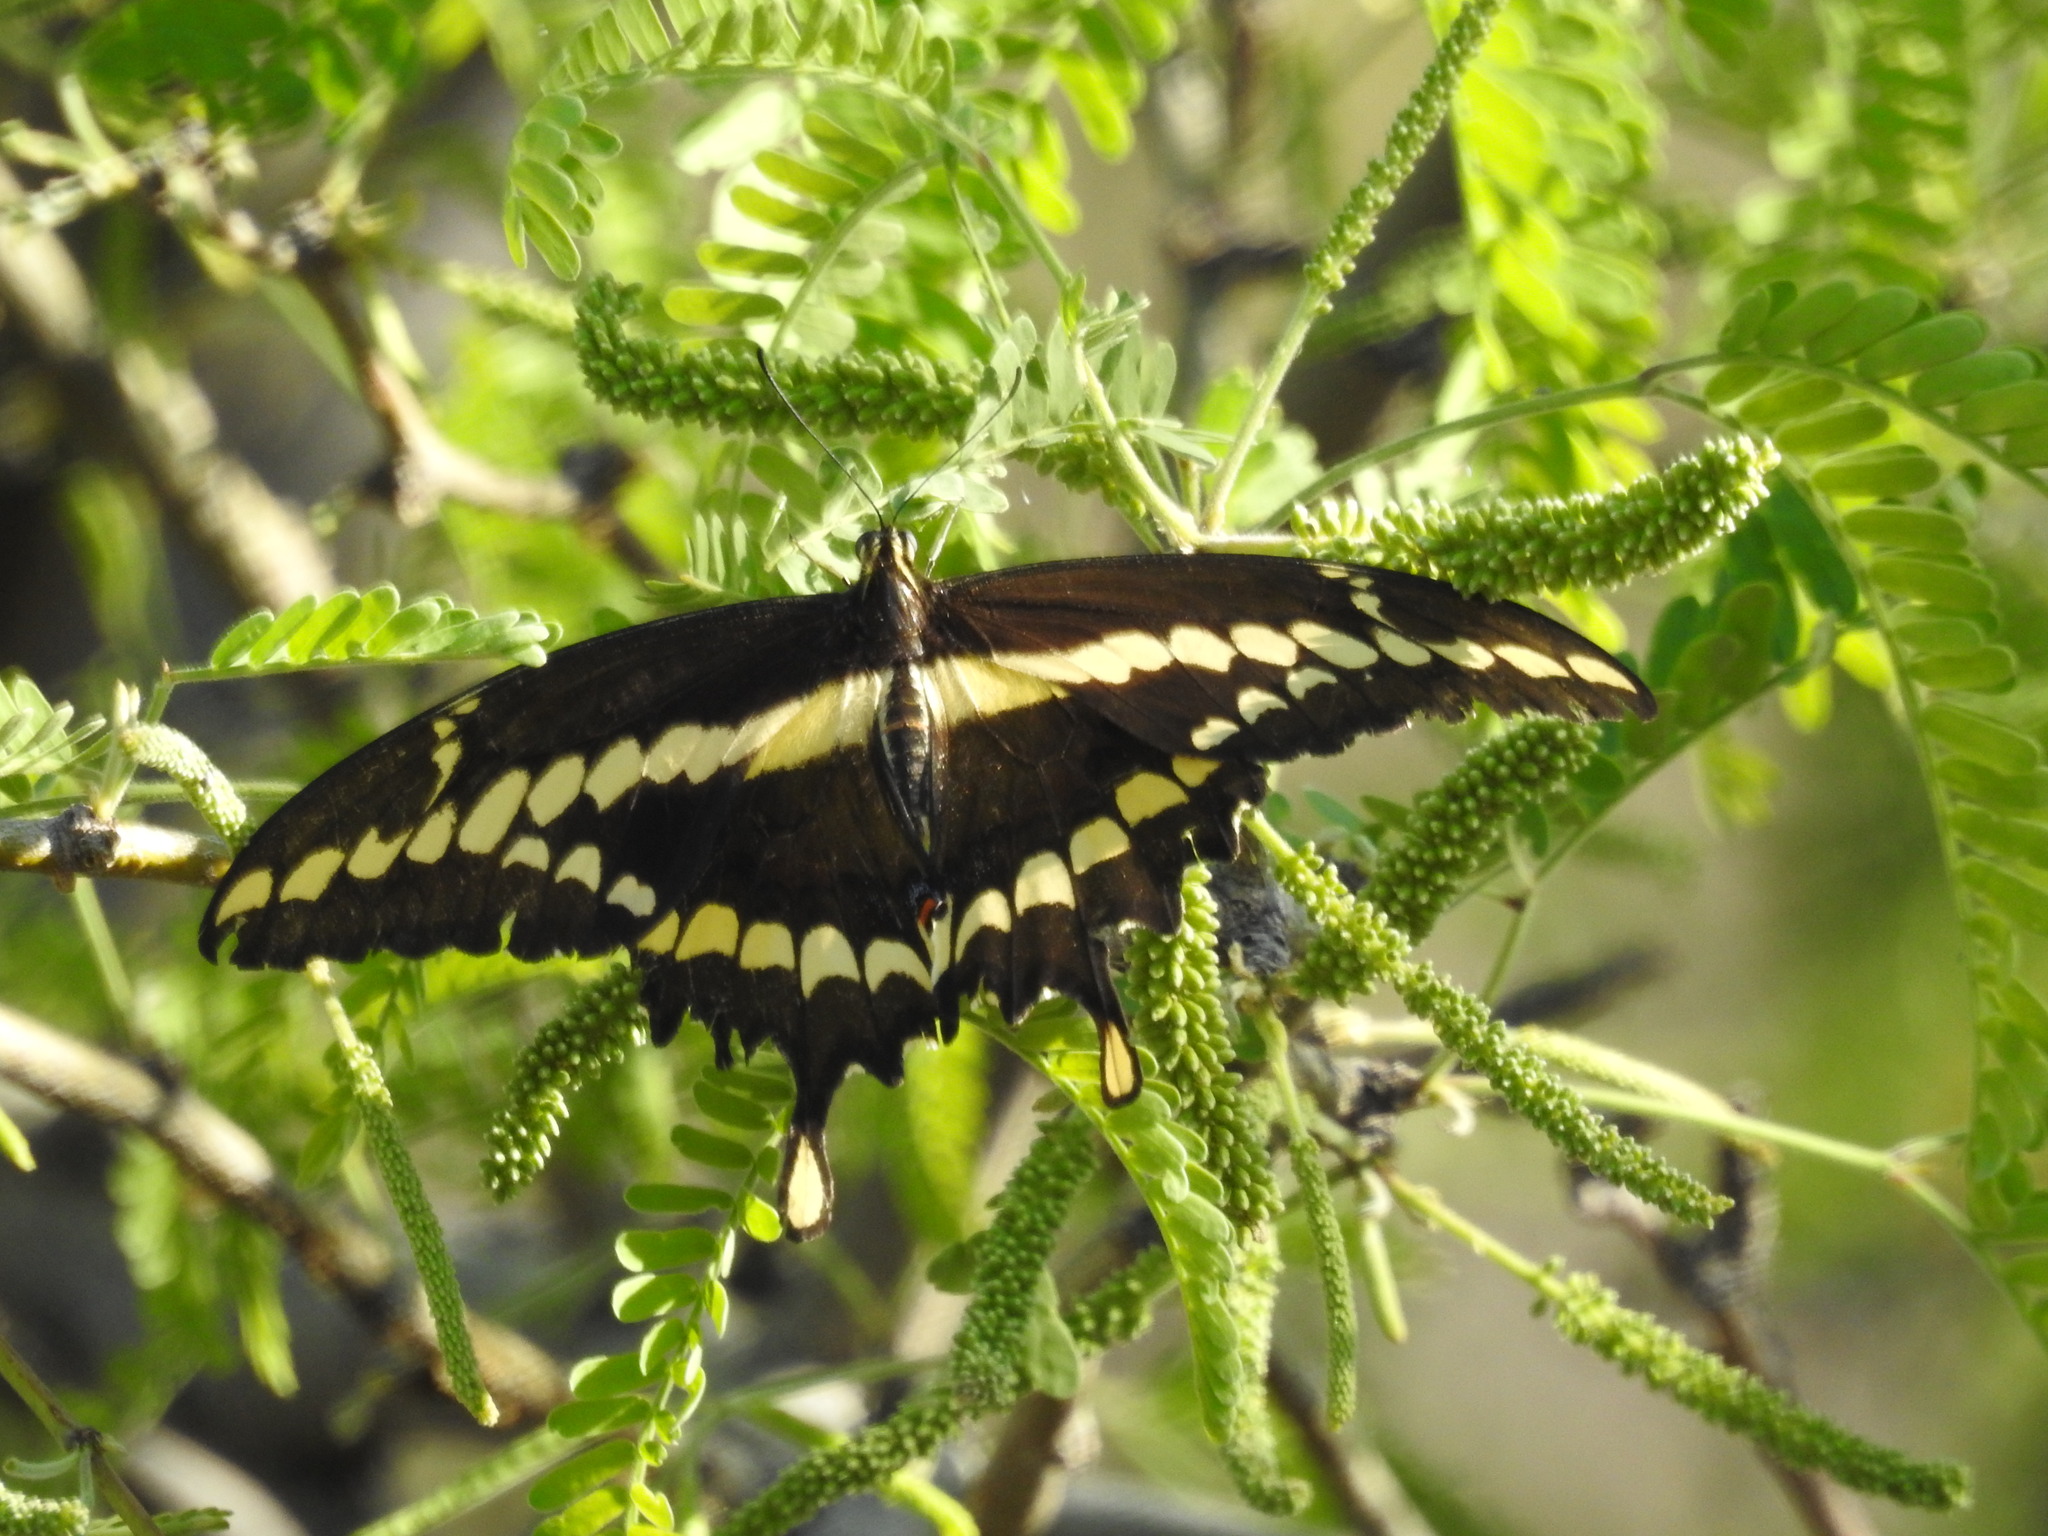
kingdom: Animalia
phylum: Arthropoda
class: Insecta
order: Lepidoptera
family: Papilionidae
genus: Papilio
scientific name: Papilio rumiko
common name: Western giant swallowtail
